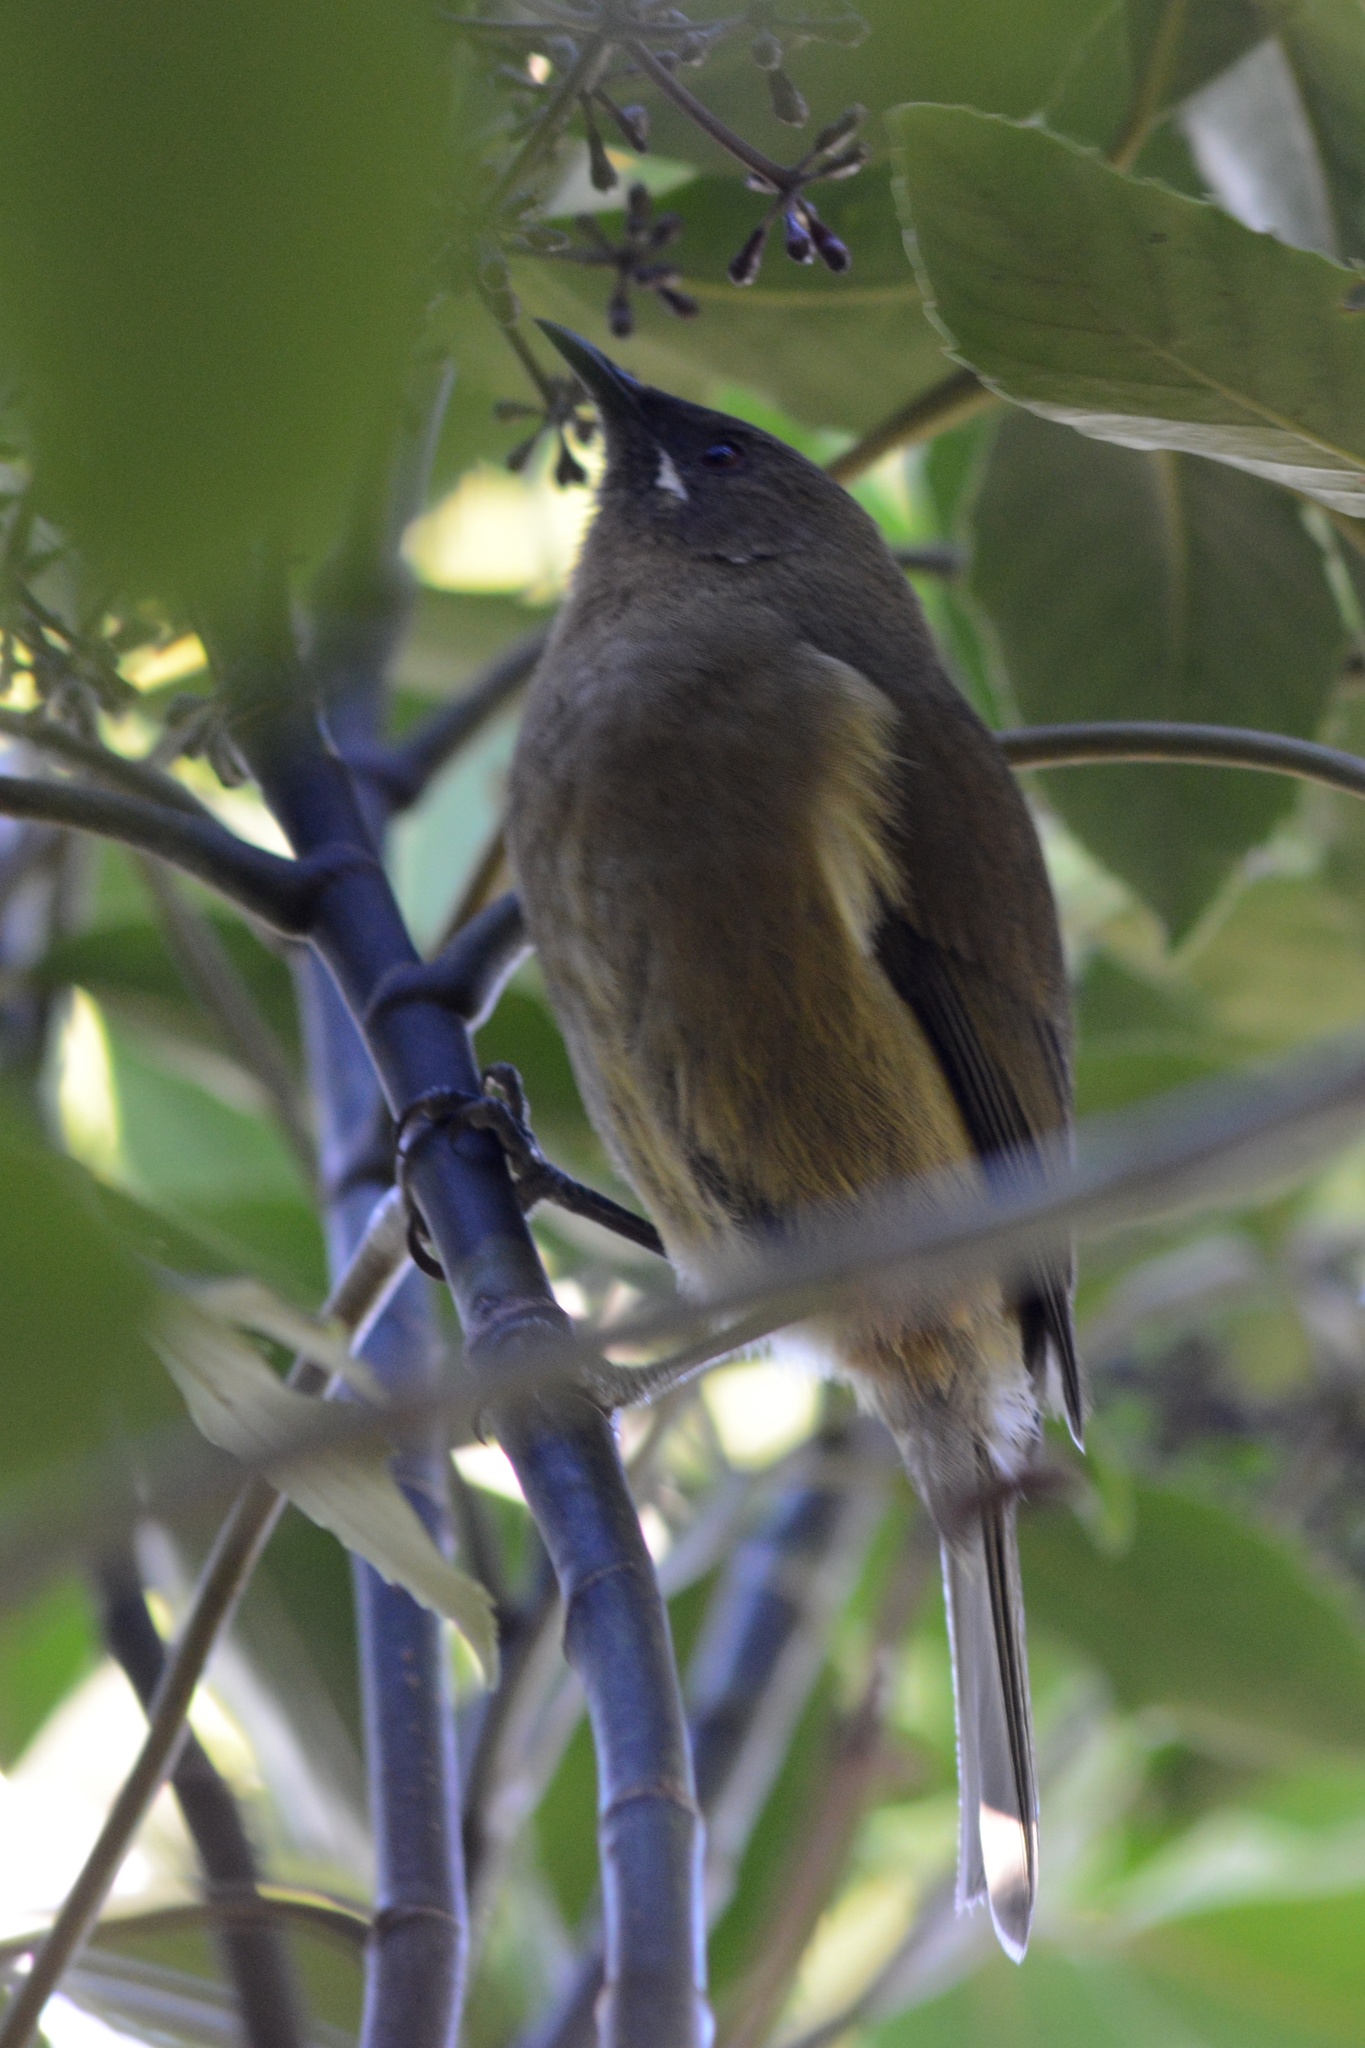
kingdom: Animalia
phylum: Chordata
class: Aves
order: Passeriformes
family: Meliphagidae
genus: Anthornis
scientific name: Anthornis melanura
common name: New zealand bellbird
